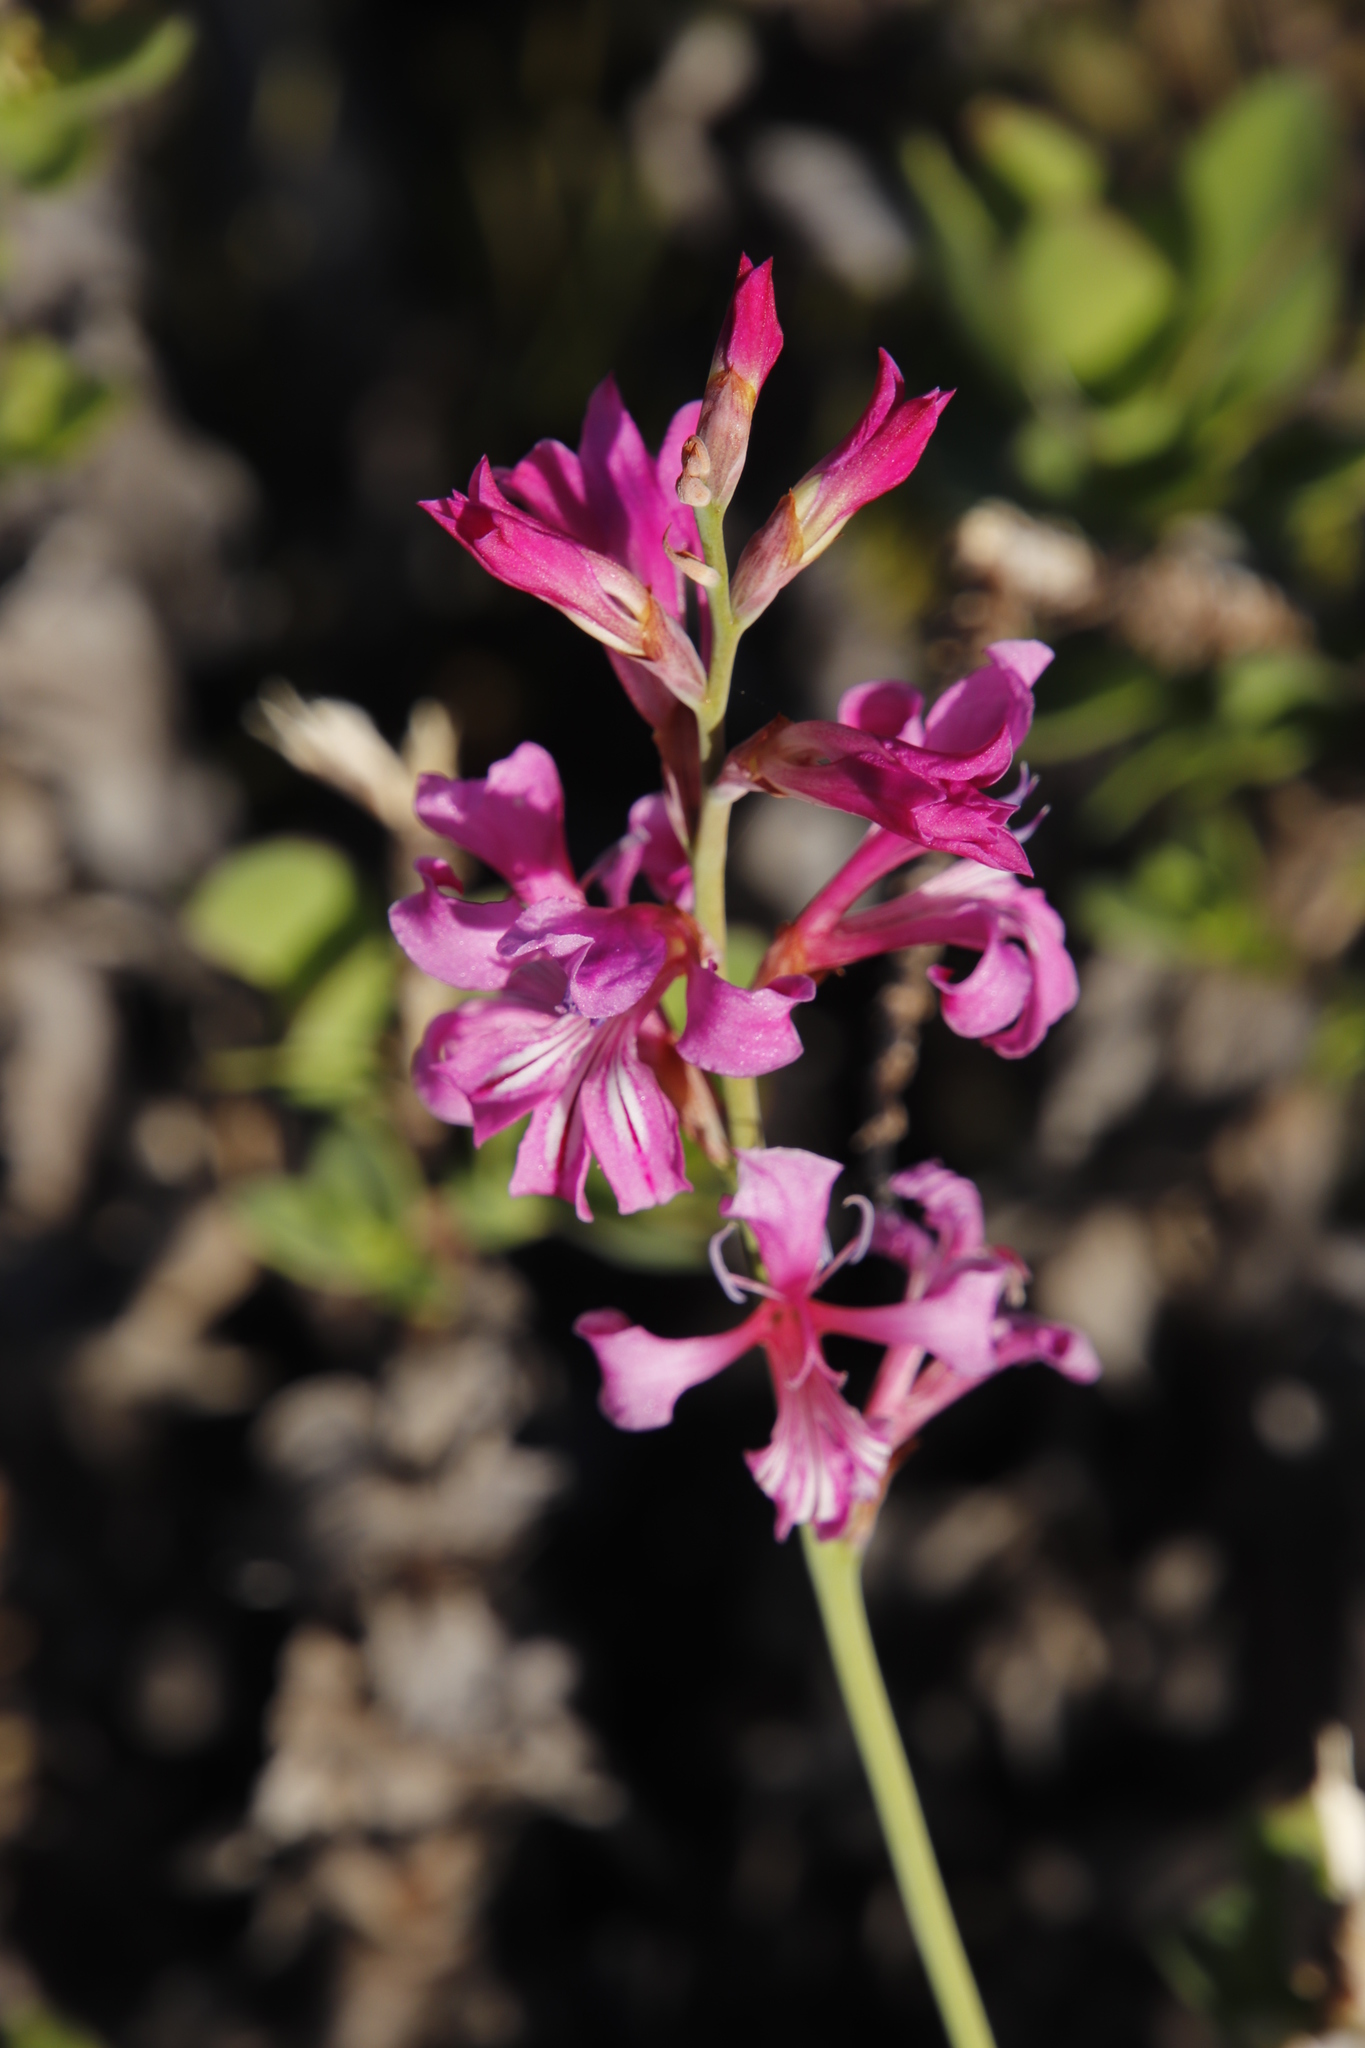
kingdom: Plantae
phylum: Tracheophyta
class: Liliopsida
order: Asparagales
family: Iridaceae
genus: Tritoniopsis
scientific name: Tritoniopsis lata
